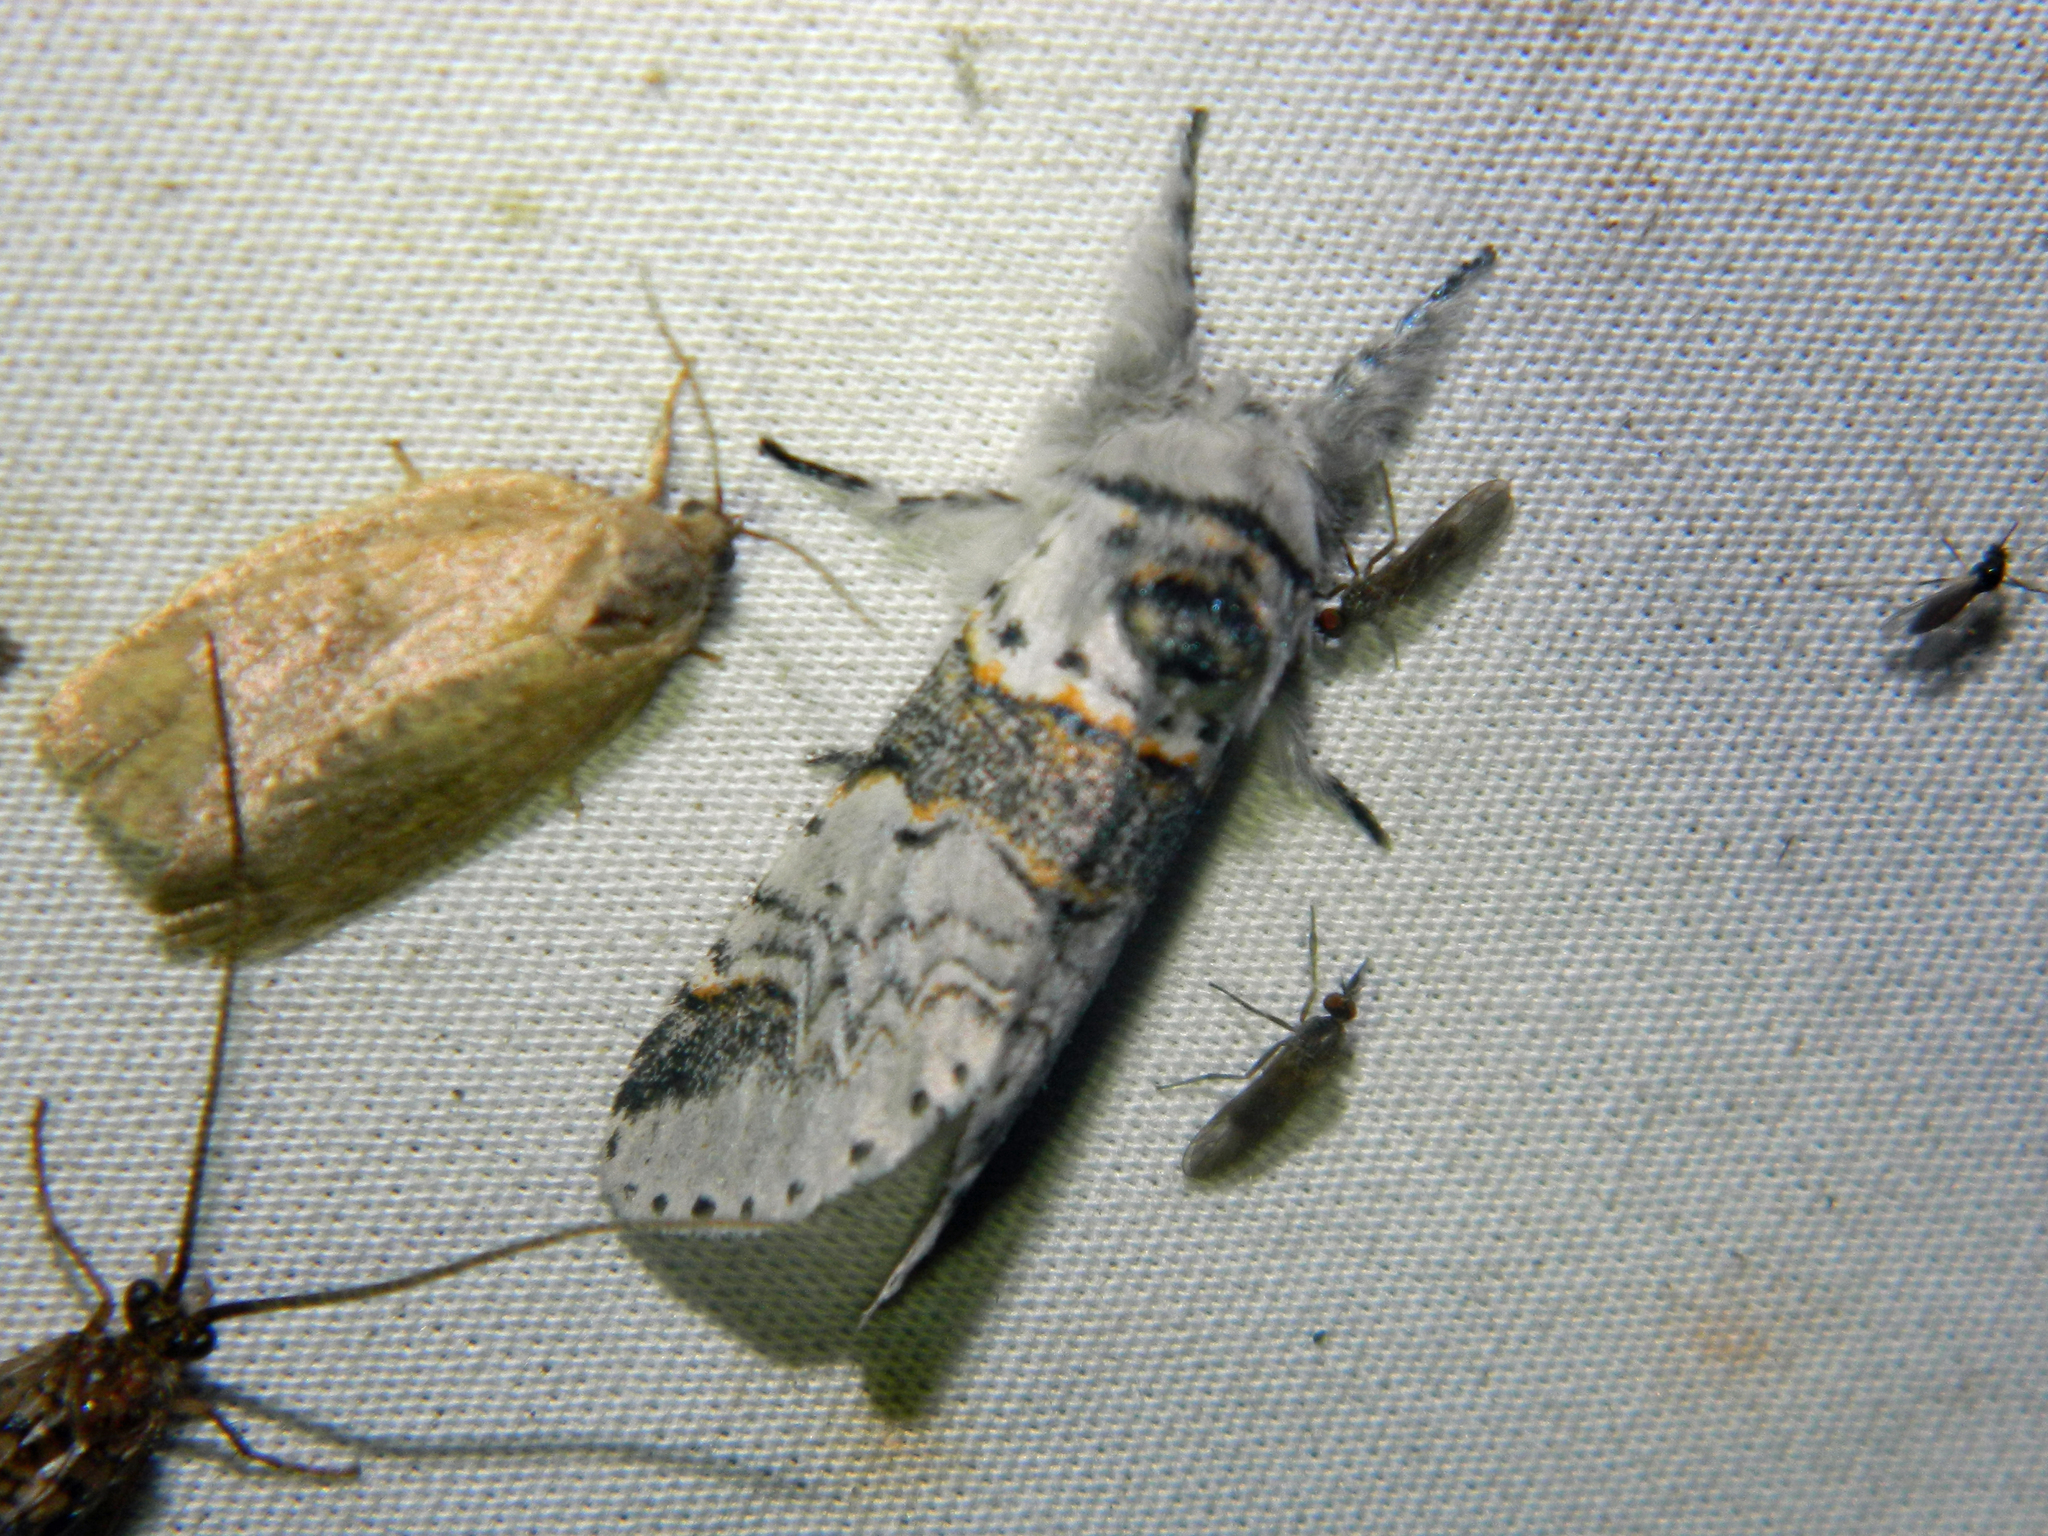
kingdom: Animalia
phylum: Arthropoda
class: Insecta
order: Lepidoptera
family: Notodontidae
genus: Furcula
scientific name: Furcula occidentalis
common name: Western furcula moth
